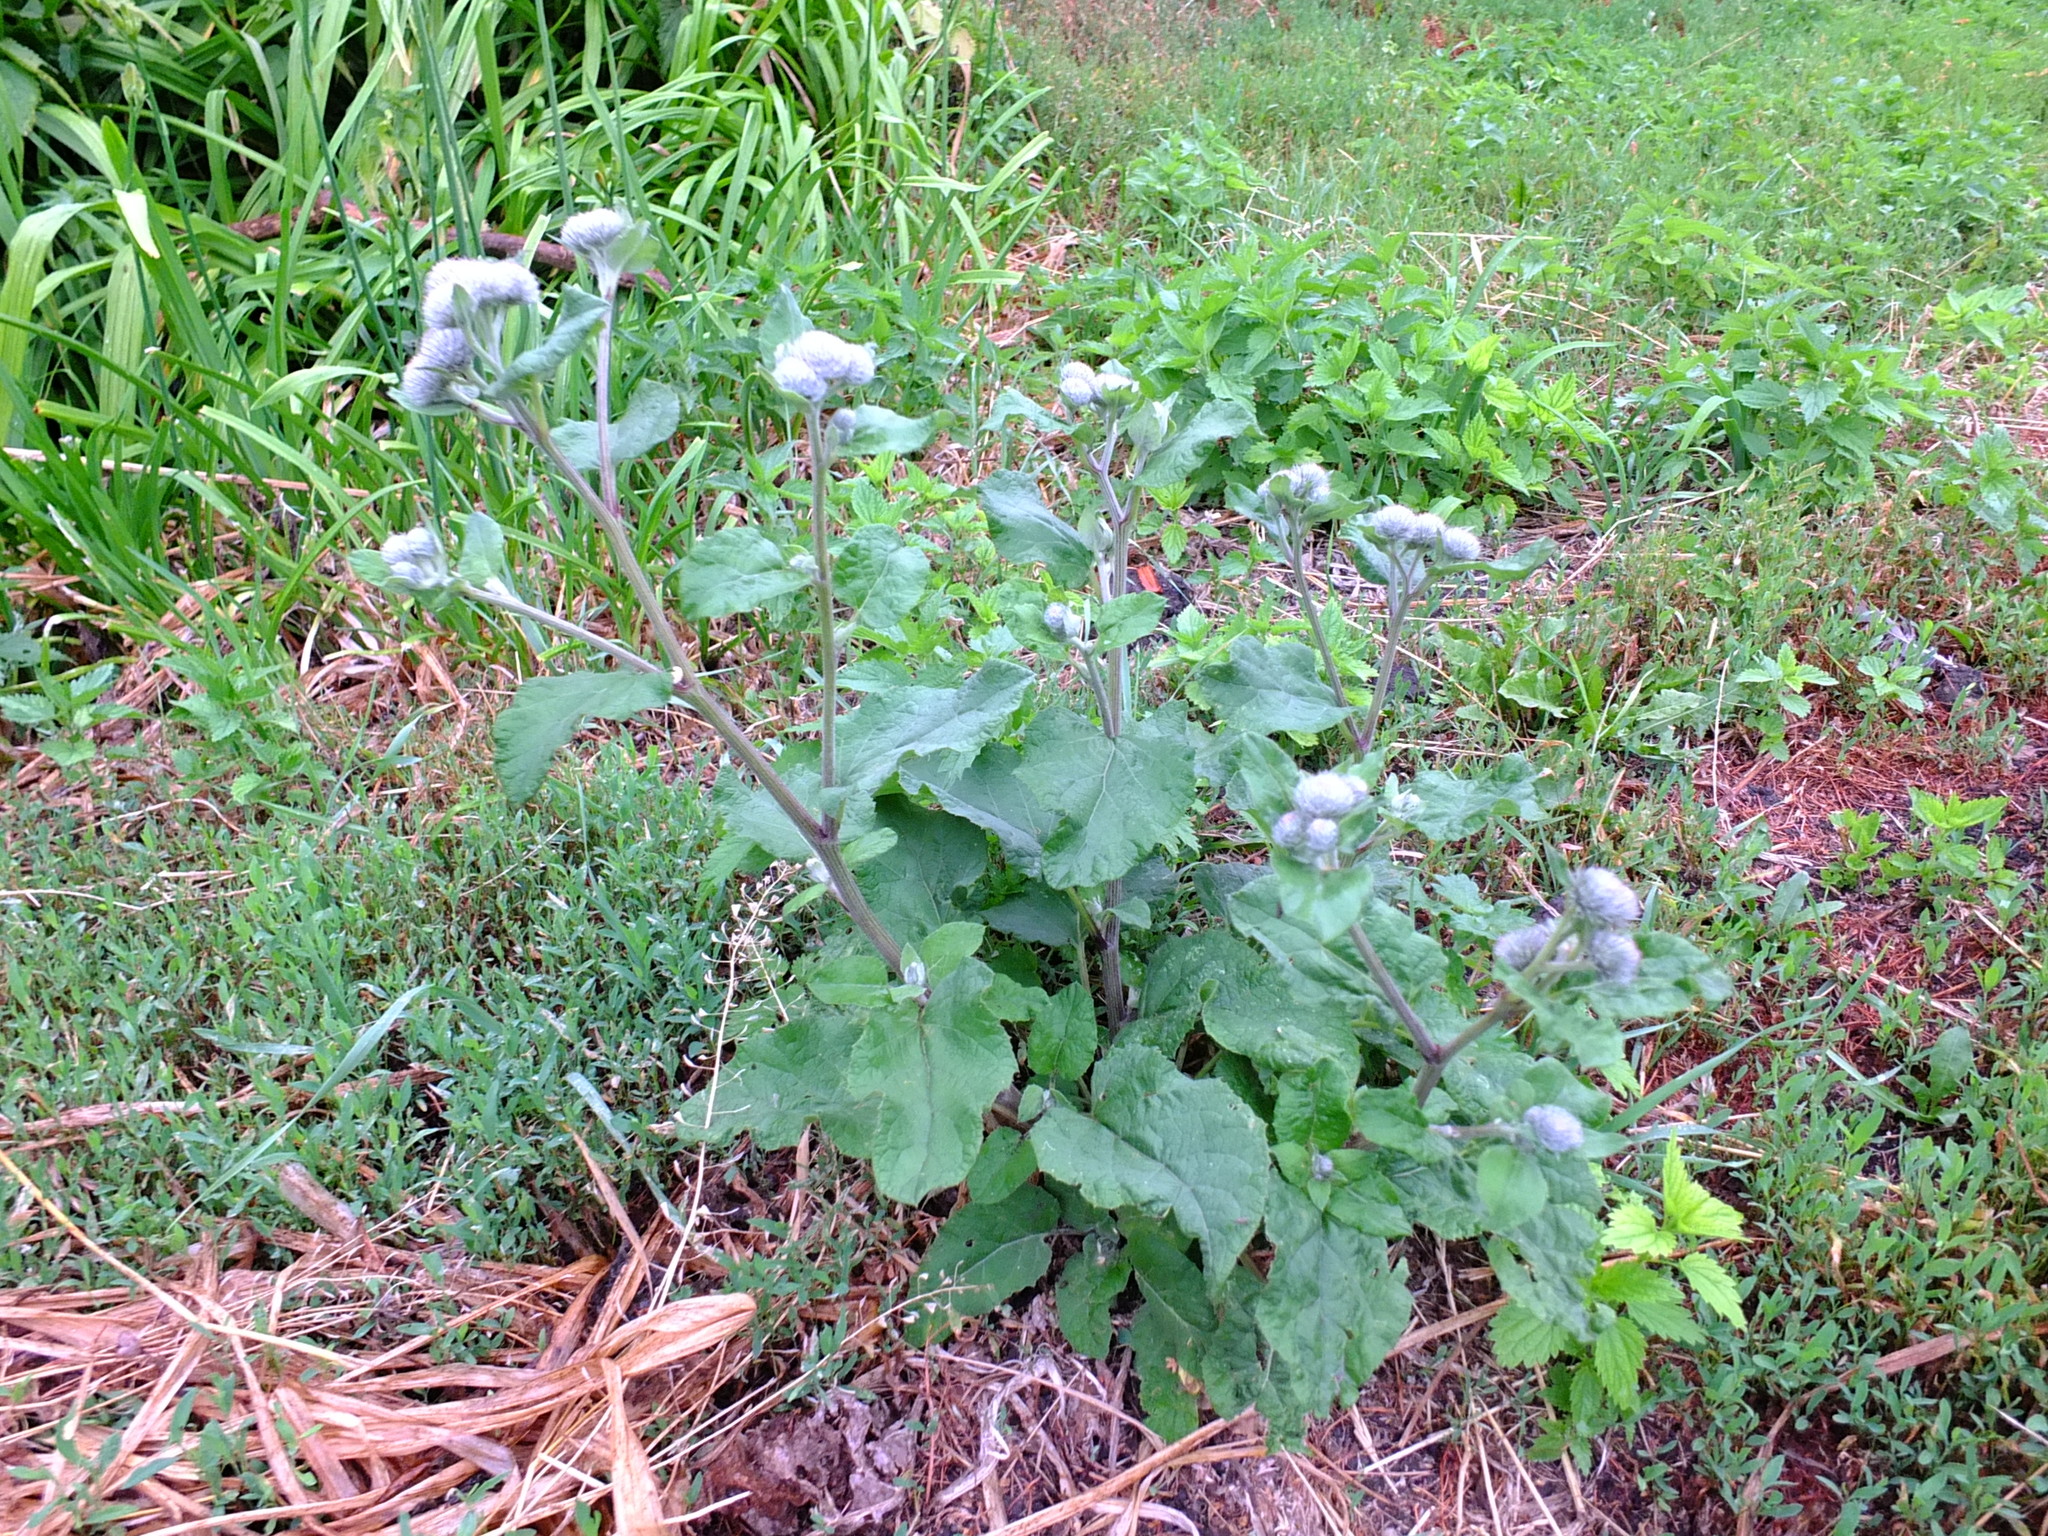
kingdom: Plantae
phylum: Tracheophyta
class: Magnoliopsida
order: Asterales
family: Asteraceae
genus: Arctium
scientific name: Arctium tomentosum
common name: Woolly burdock
